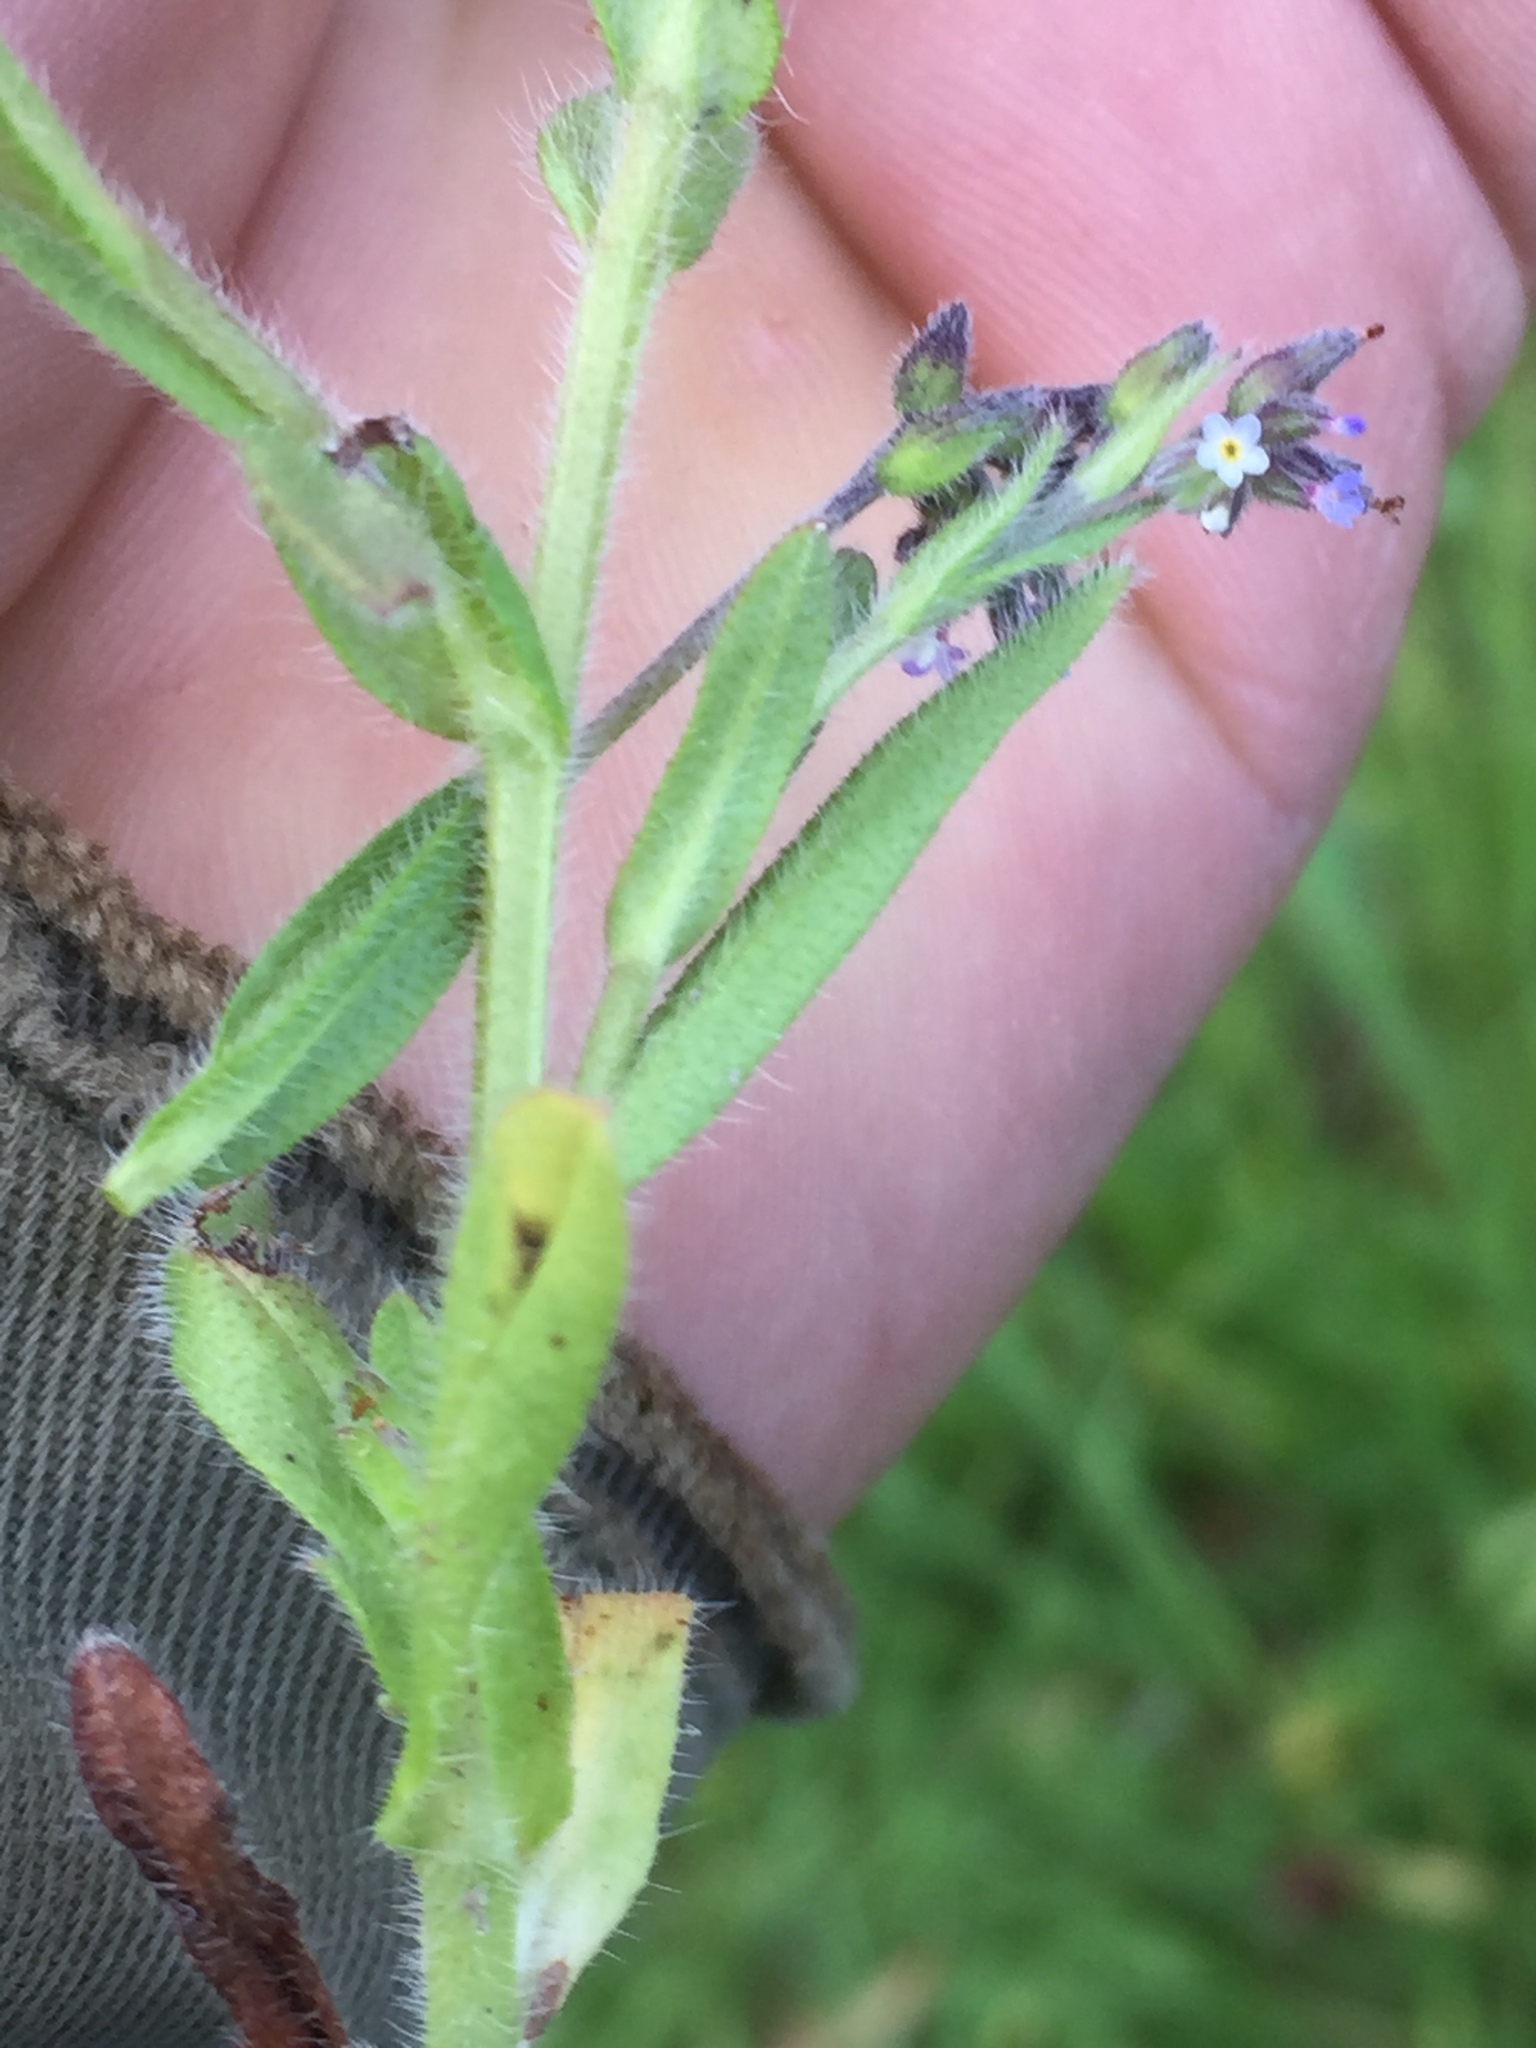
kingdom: Plantae
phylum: Tracheophyta
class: Magnoliopsida
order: Boraginales
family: Boraginaceae
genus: Myosotis
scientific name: Myosotis discolor
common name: Changing forget-me-not
